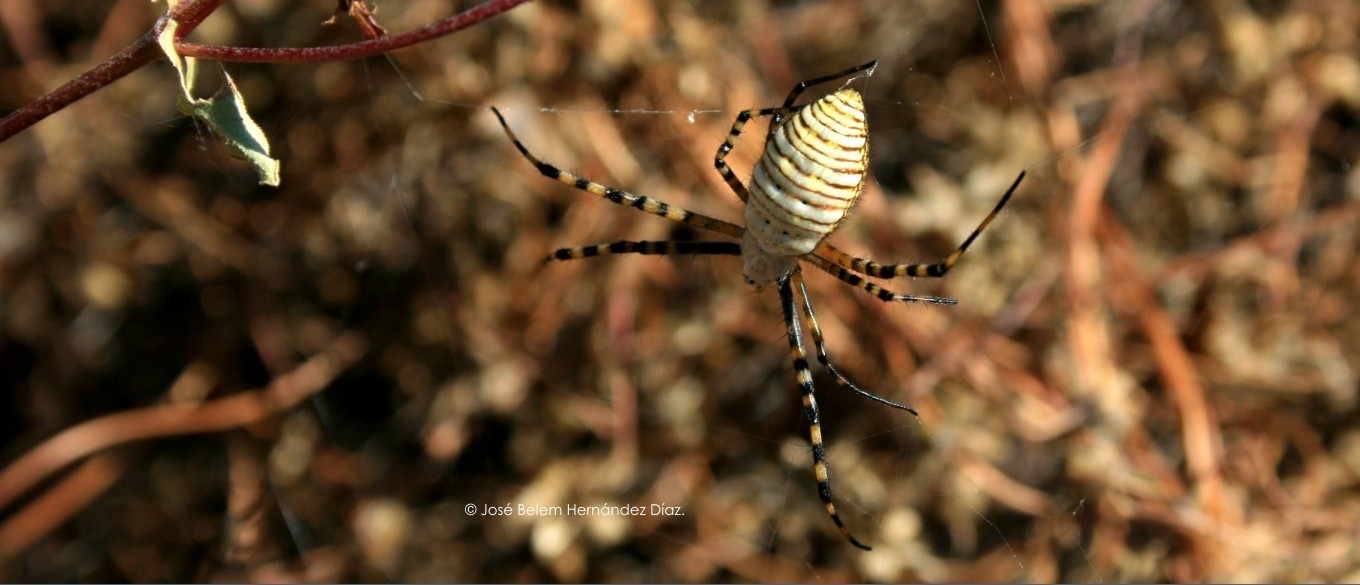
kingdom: Animalia
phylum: Arthropoda
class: Arachnida
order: Araneae
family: Araneidae
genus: Argiope
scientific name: Argiope trifasciata
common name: Banded garden spider
